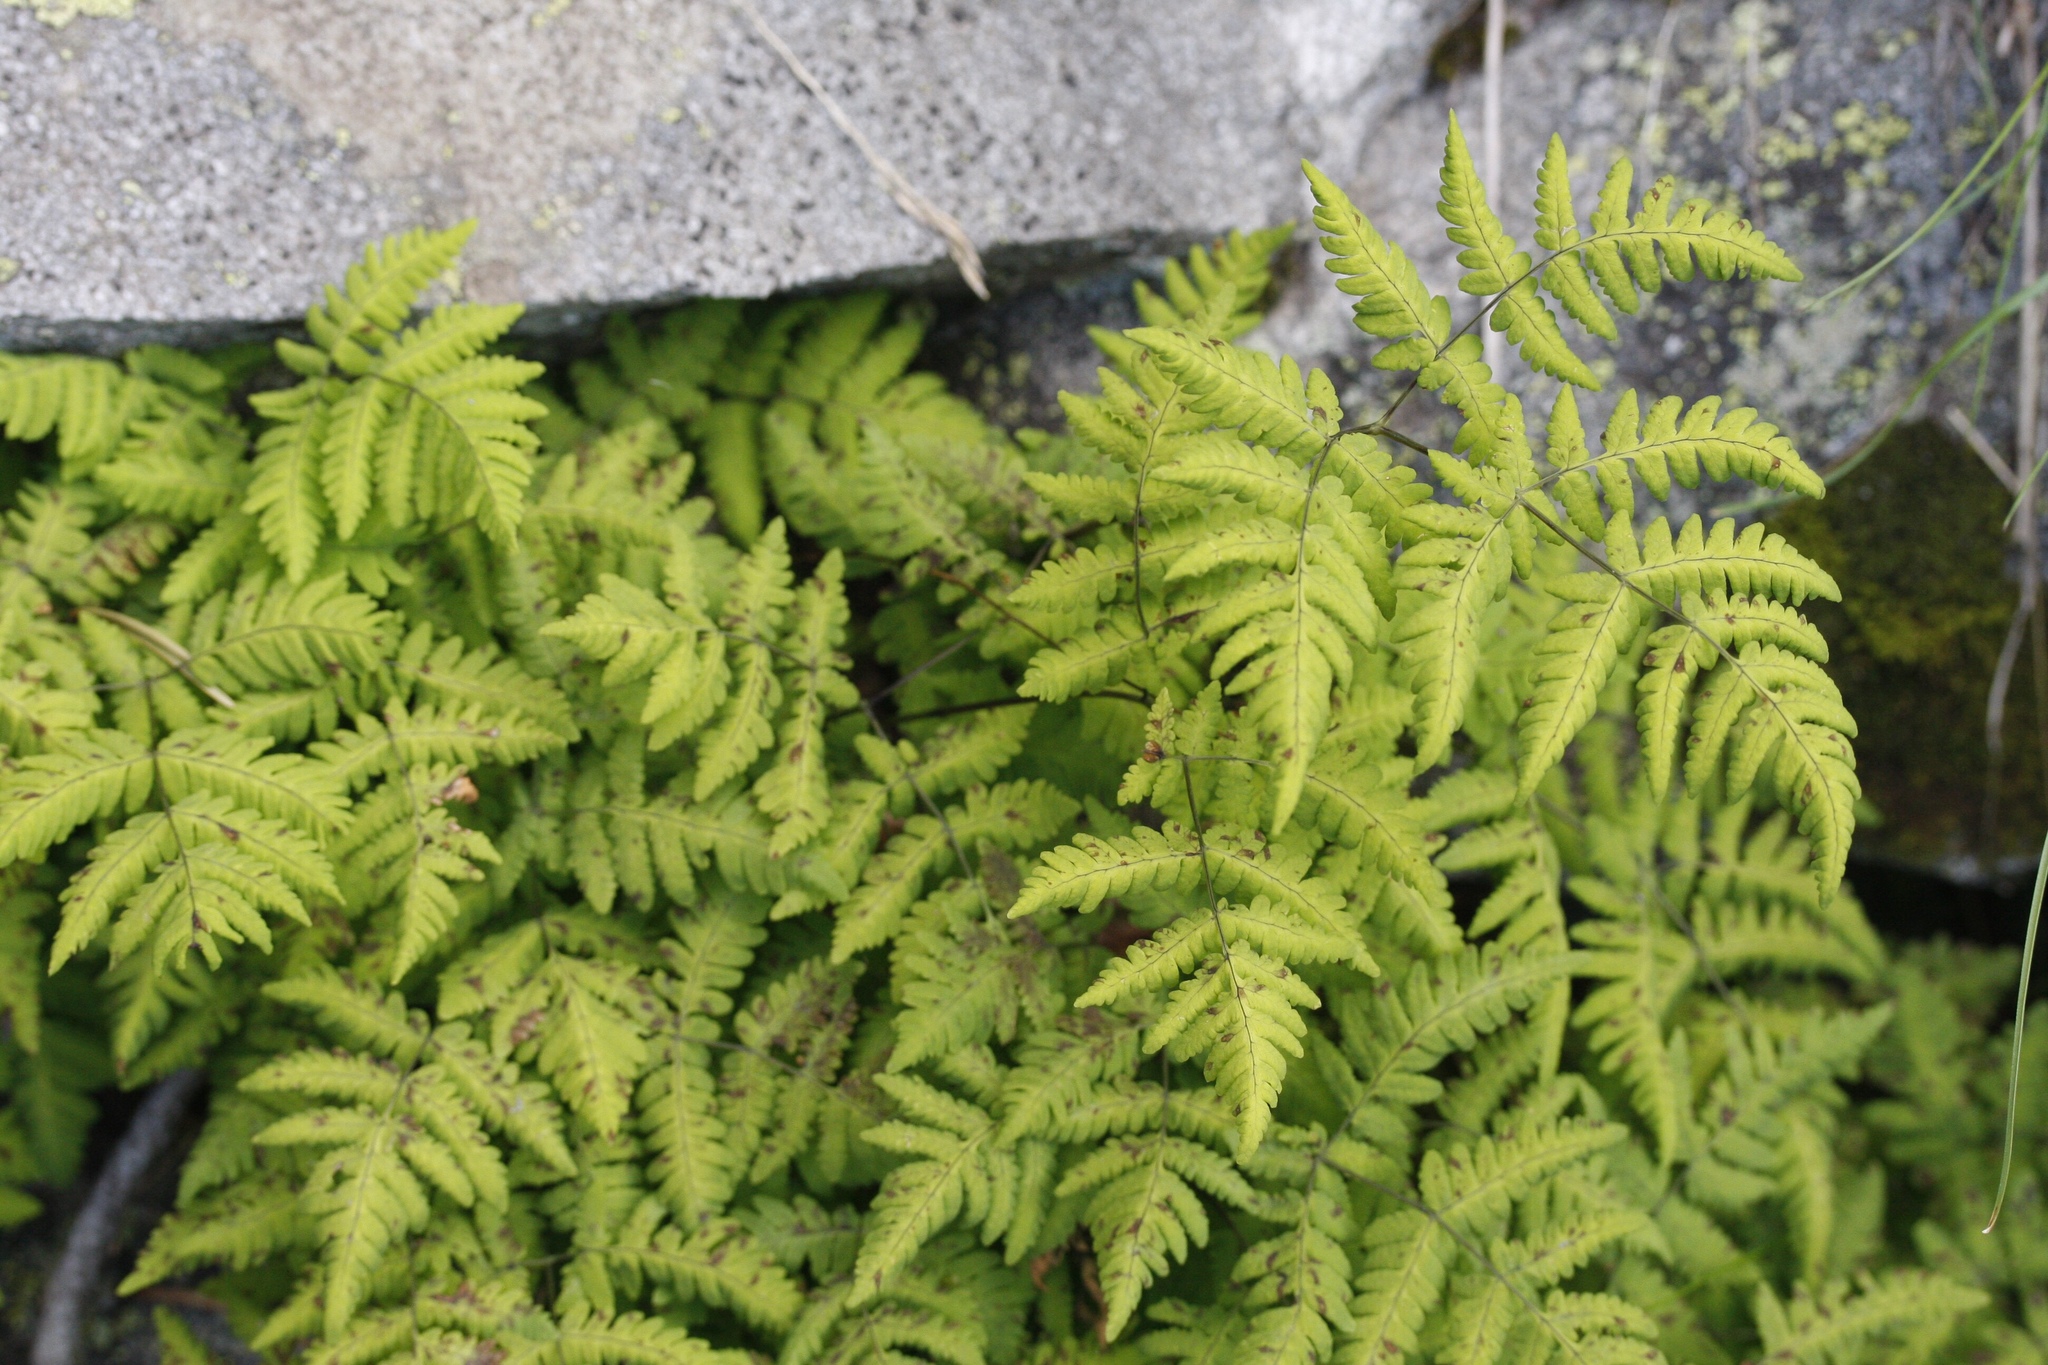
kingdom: Plantae
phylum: Tracheophyta
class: Polypodiopsida
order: Polypodiales
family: Cystopteridaceae
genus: Gymnocarpium
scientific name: Gymnocarpium dryopteris
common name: Oak fern
